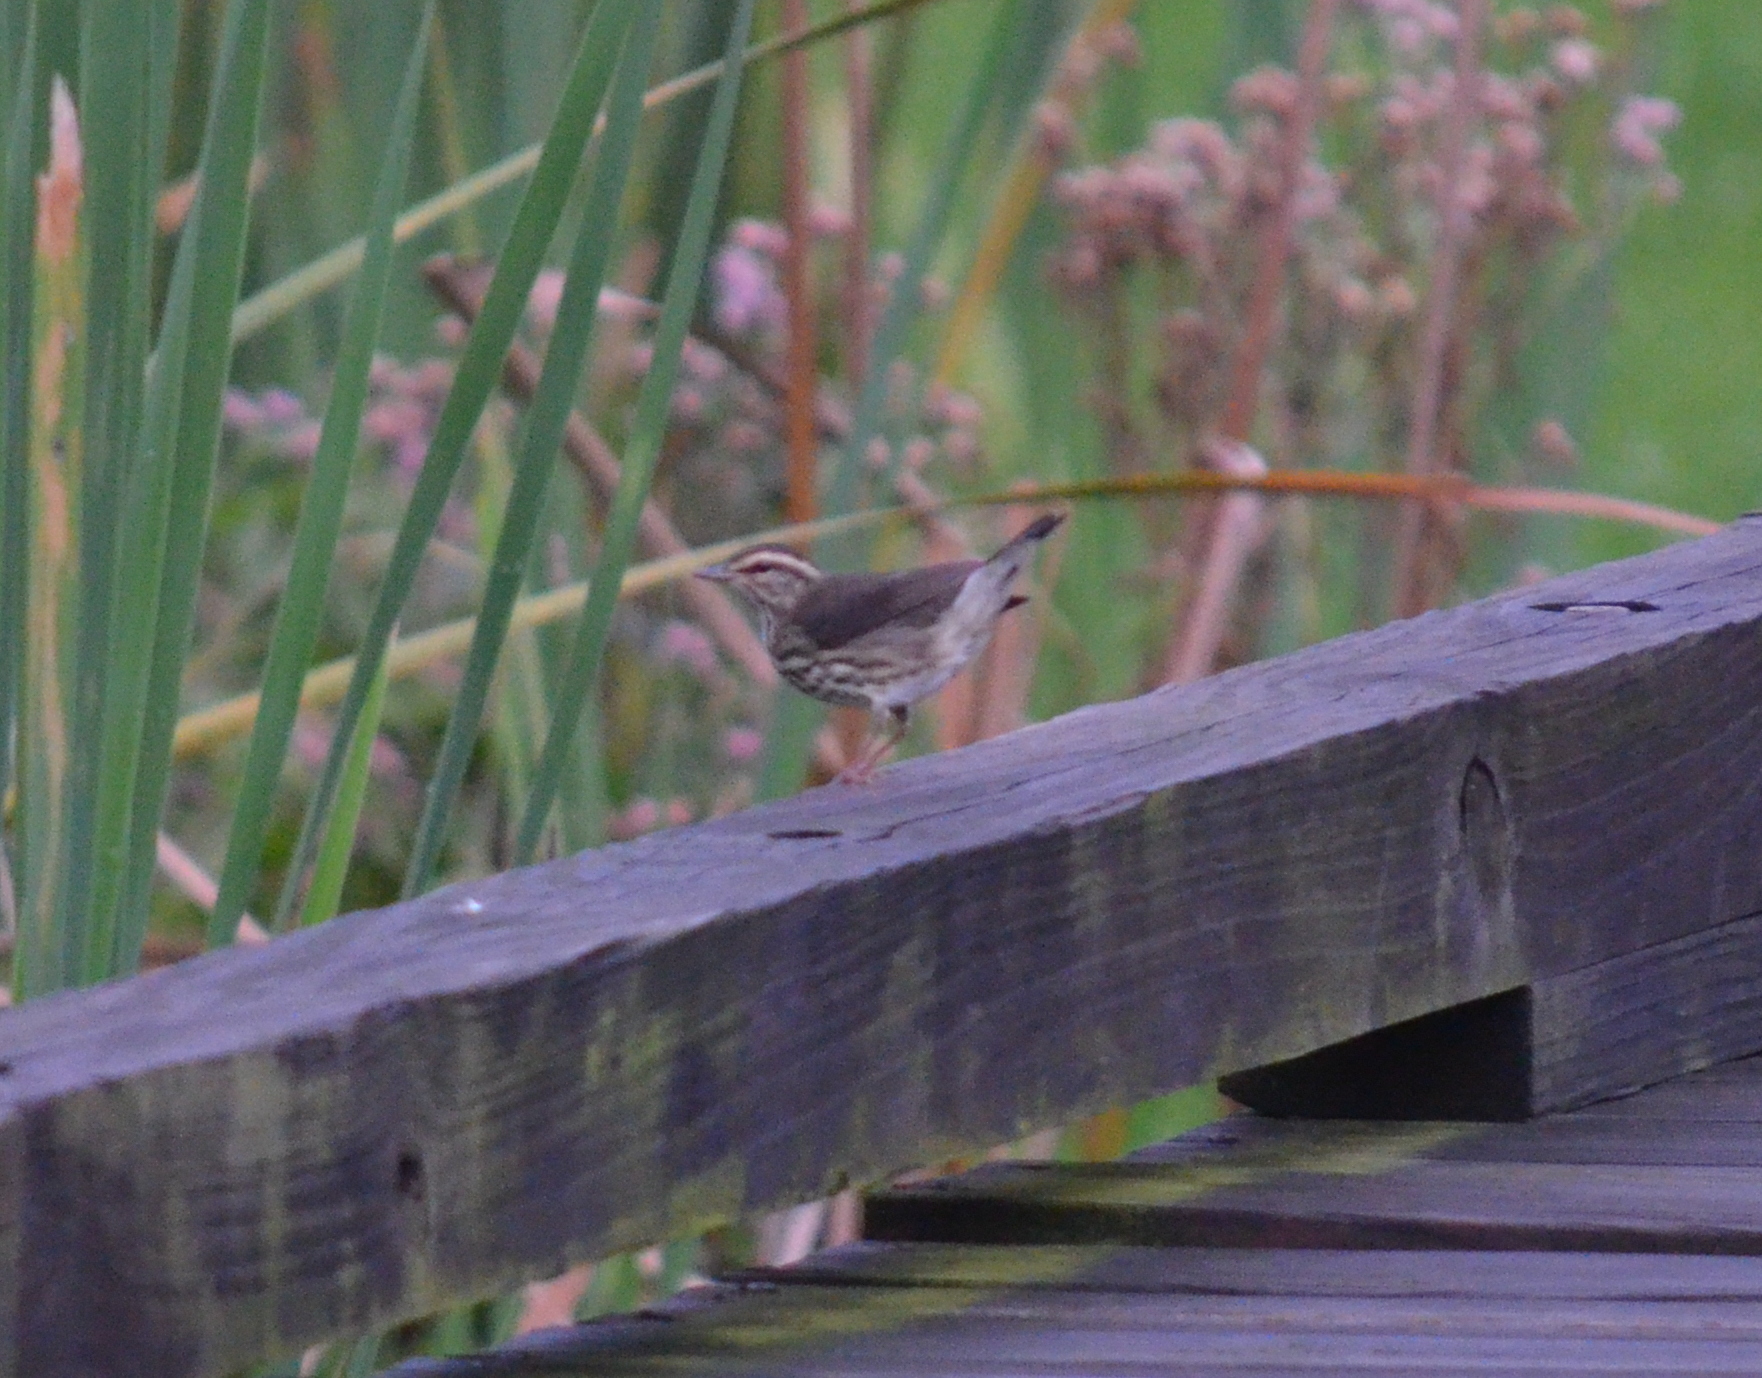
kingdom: Animalia
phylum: Chordata
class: Aves
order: Passeriformes
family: Parulidae
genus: Parkesia
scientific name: Parkesia noveboracensis
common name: Northern waterthrush
